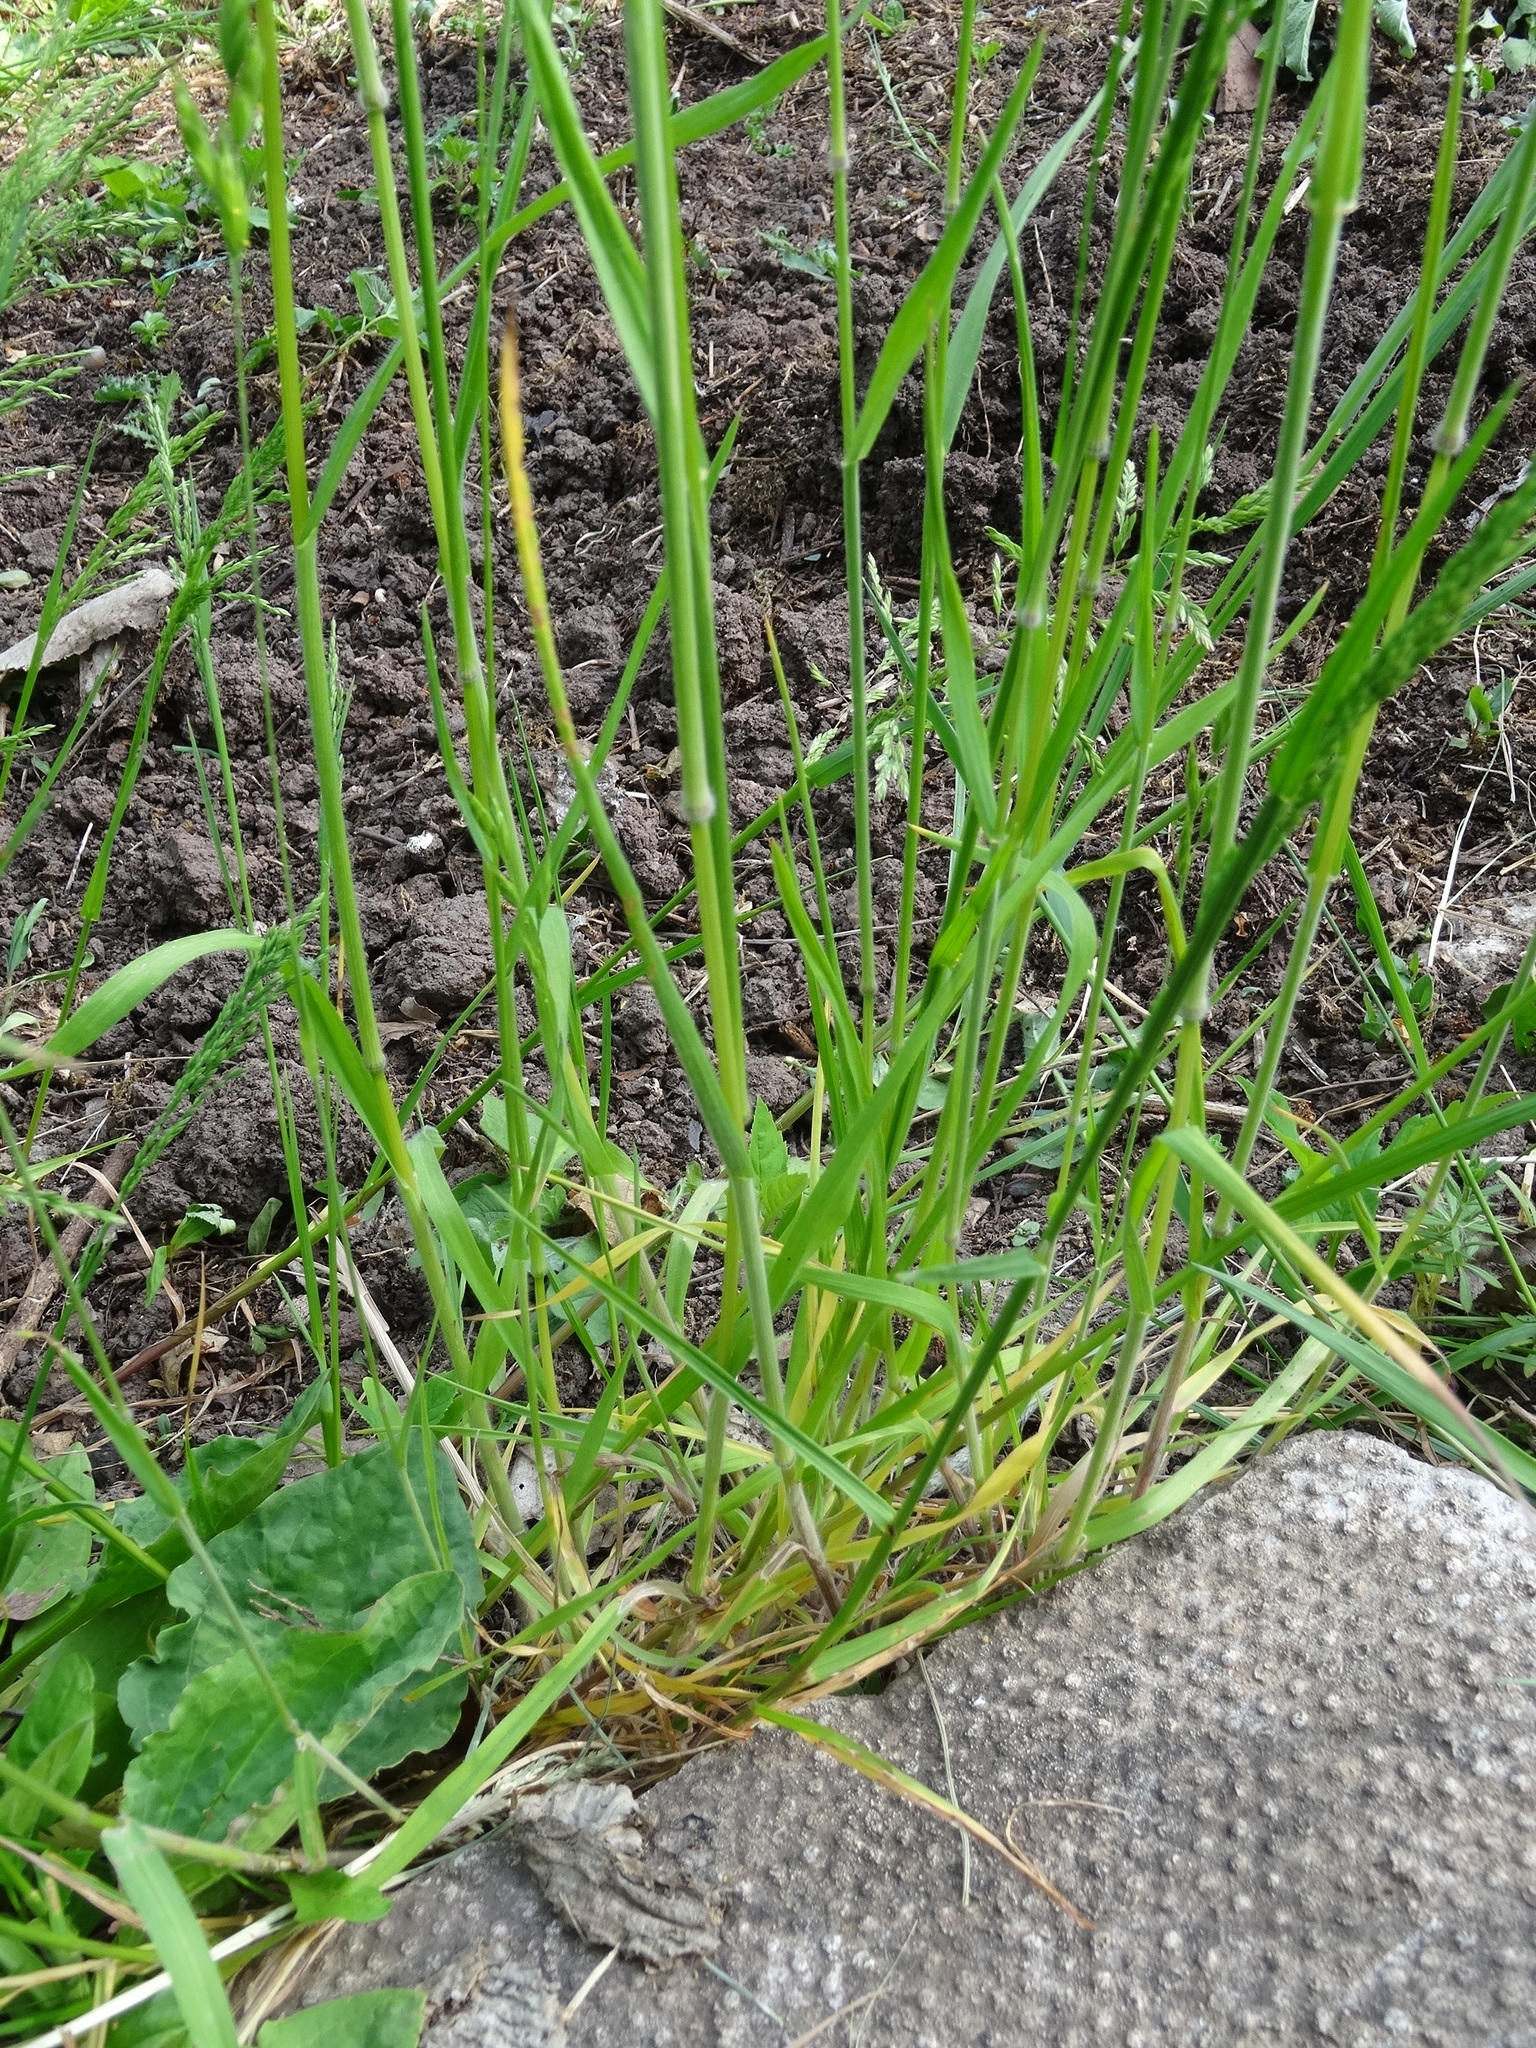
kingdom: Plantae
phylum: Tracheophyta
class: Liliopsida
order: Poales
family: Poaceae
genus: Bromus
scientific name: Bromus hordeaceus
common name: Soft brome
